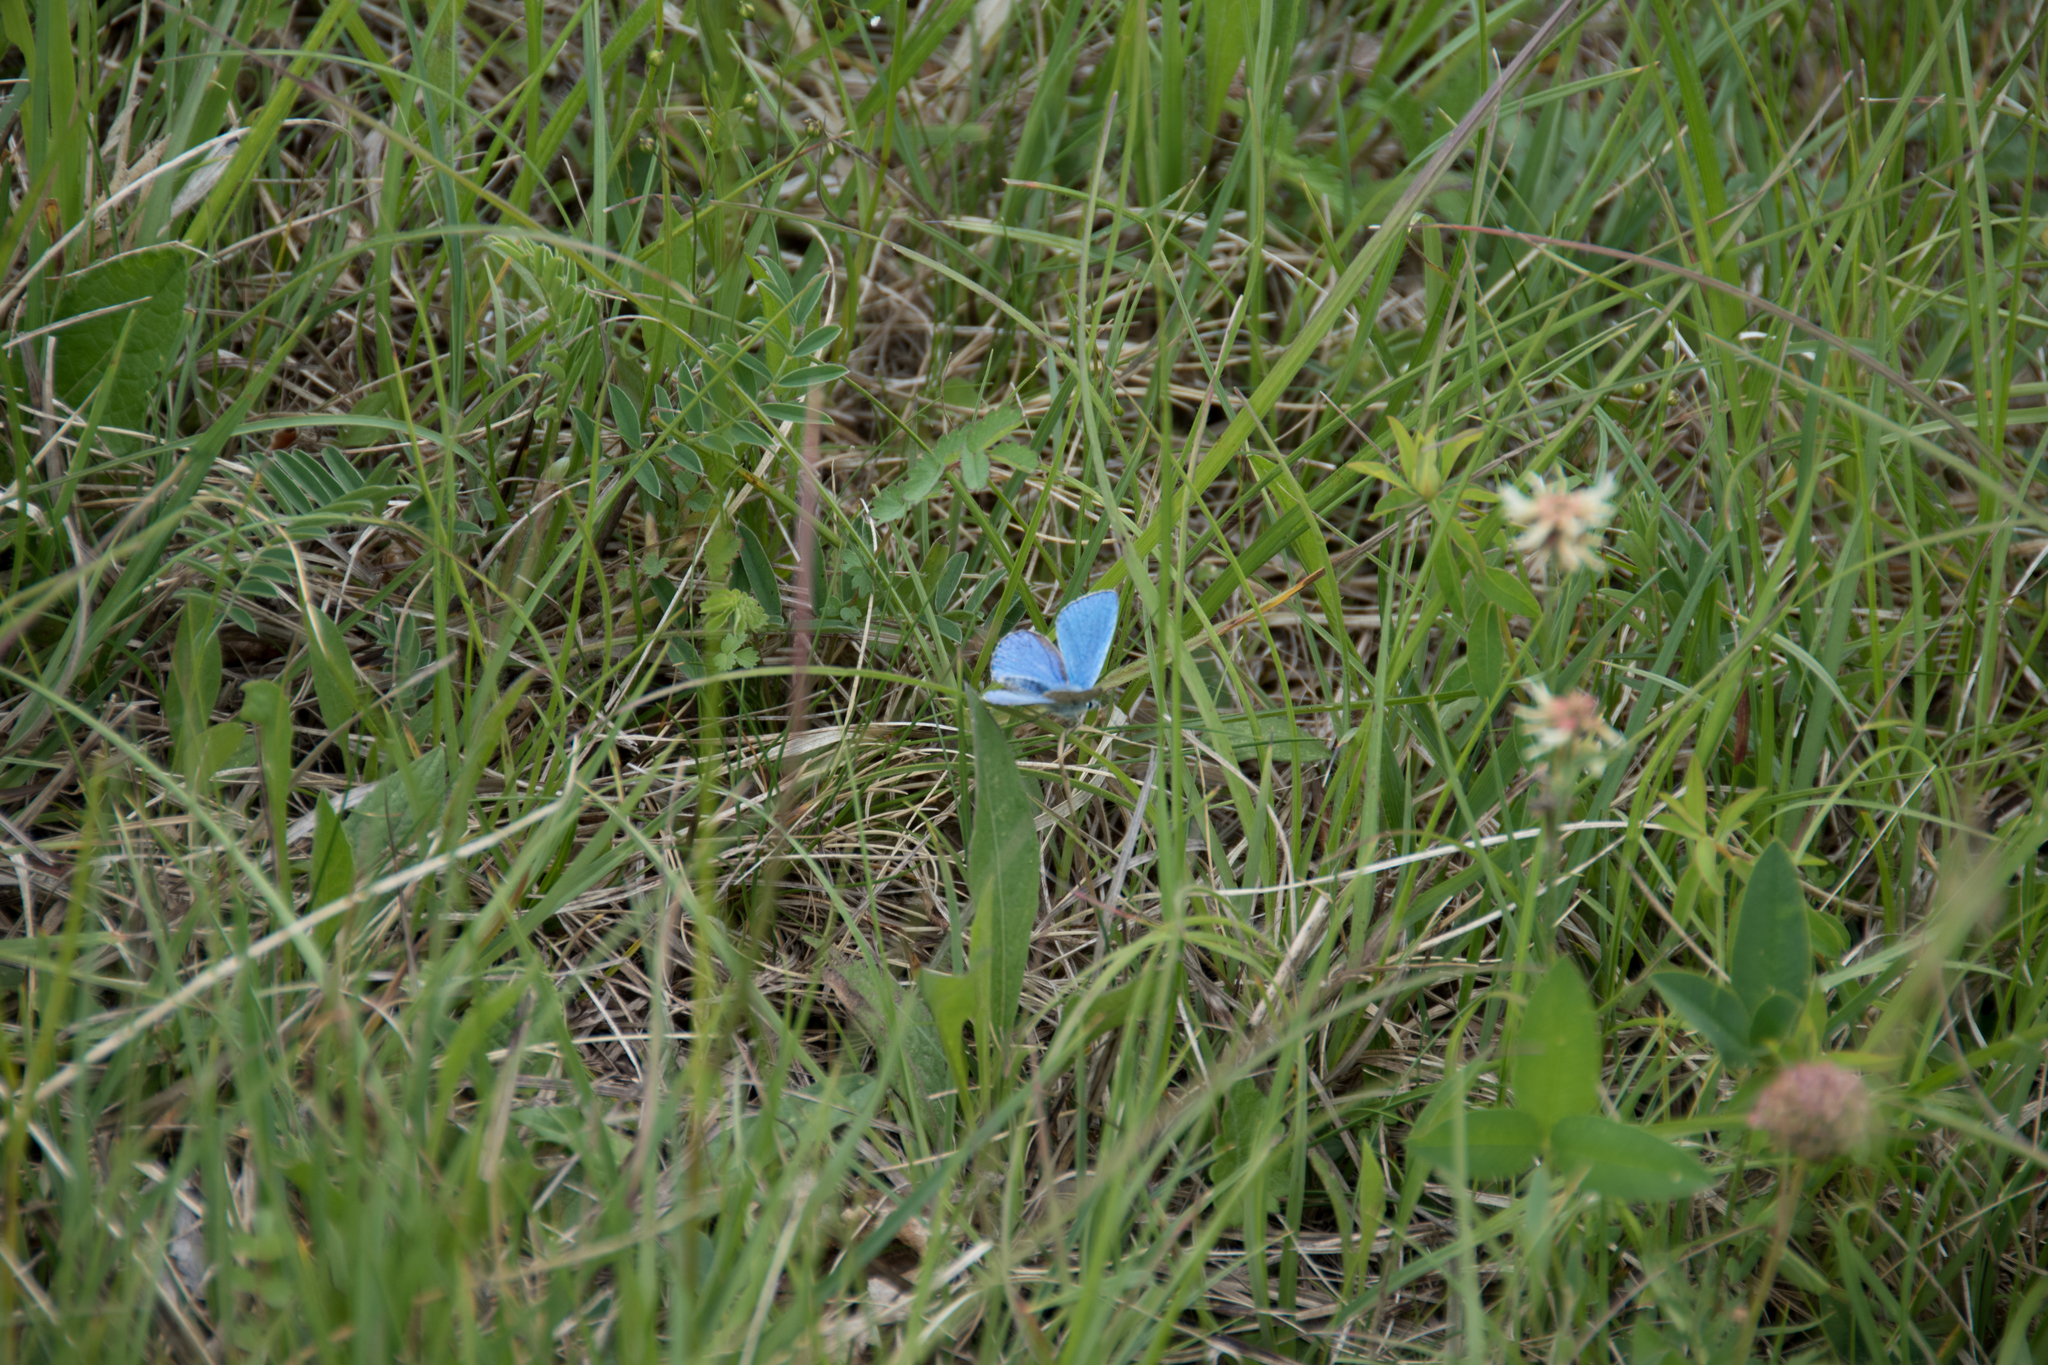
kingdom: Animalia
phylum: Arthropoda
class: Insecta
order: Lepidoptera
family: Lycaenidae
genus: Lysandra
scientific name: Lysandra bellargus
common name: Adonis blue
